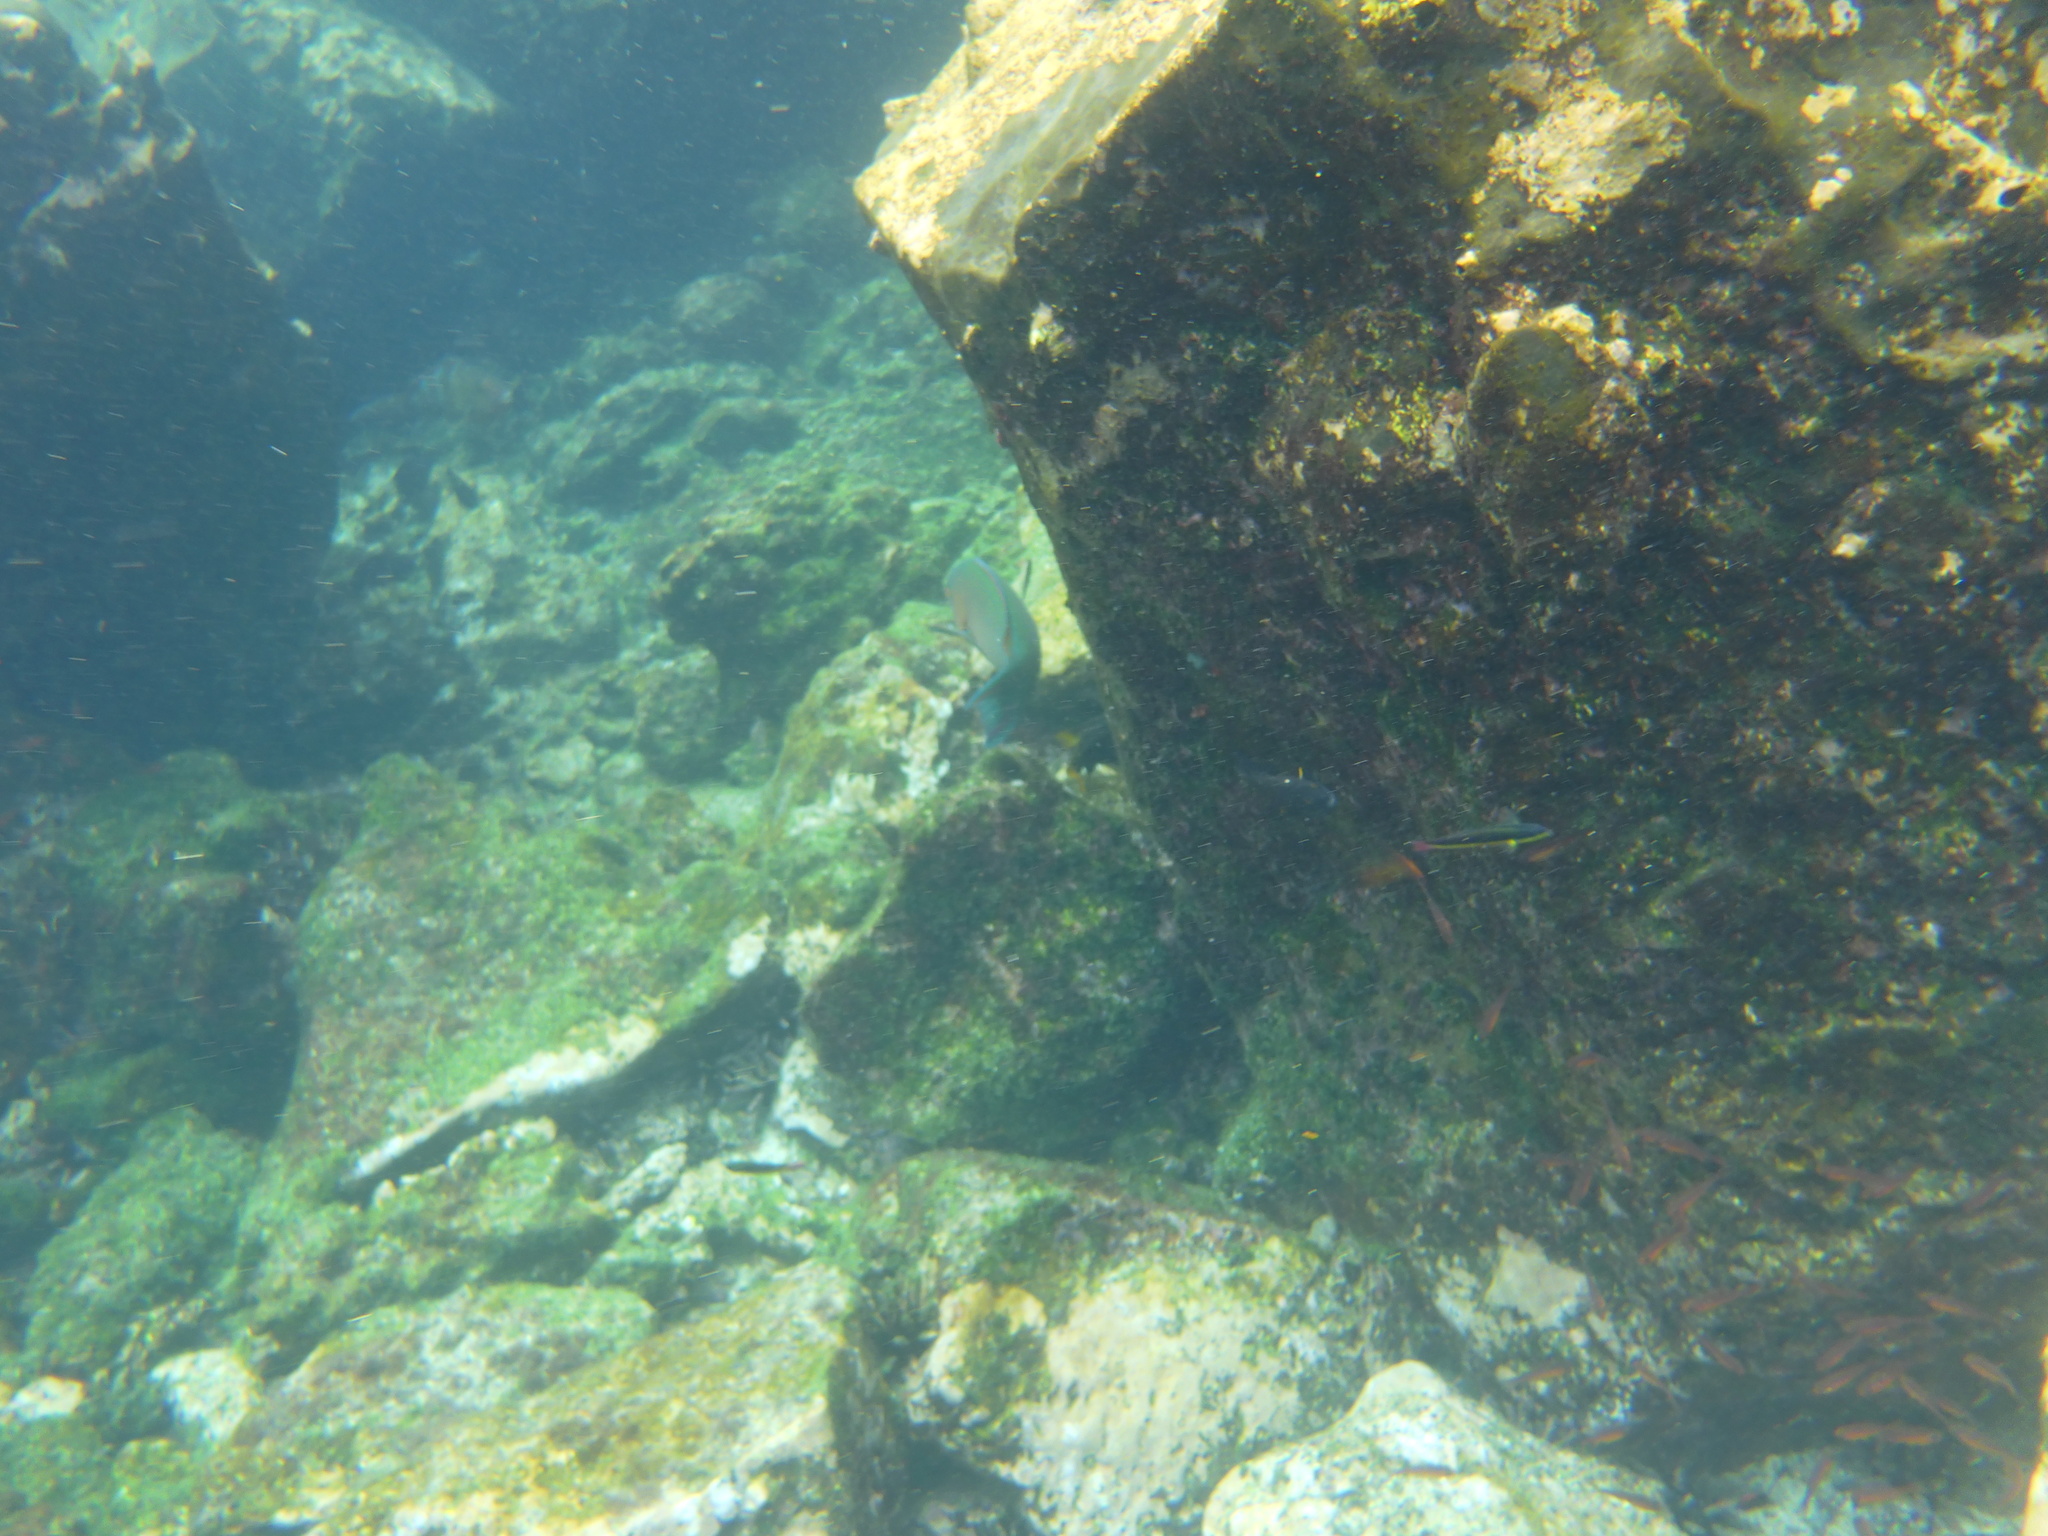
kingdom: Animalia
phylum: Chordata
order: Perciformes
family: Labridae
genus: Thalassoma
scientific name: Thalassoma lucasanum
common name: Cortez rainbow wrasse
